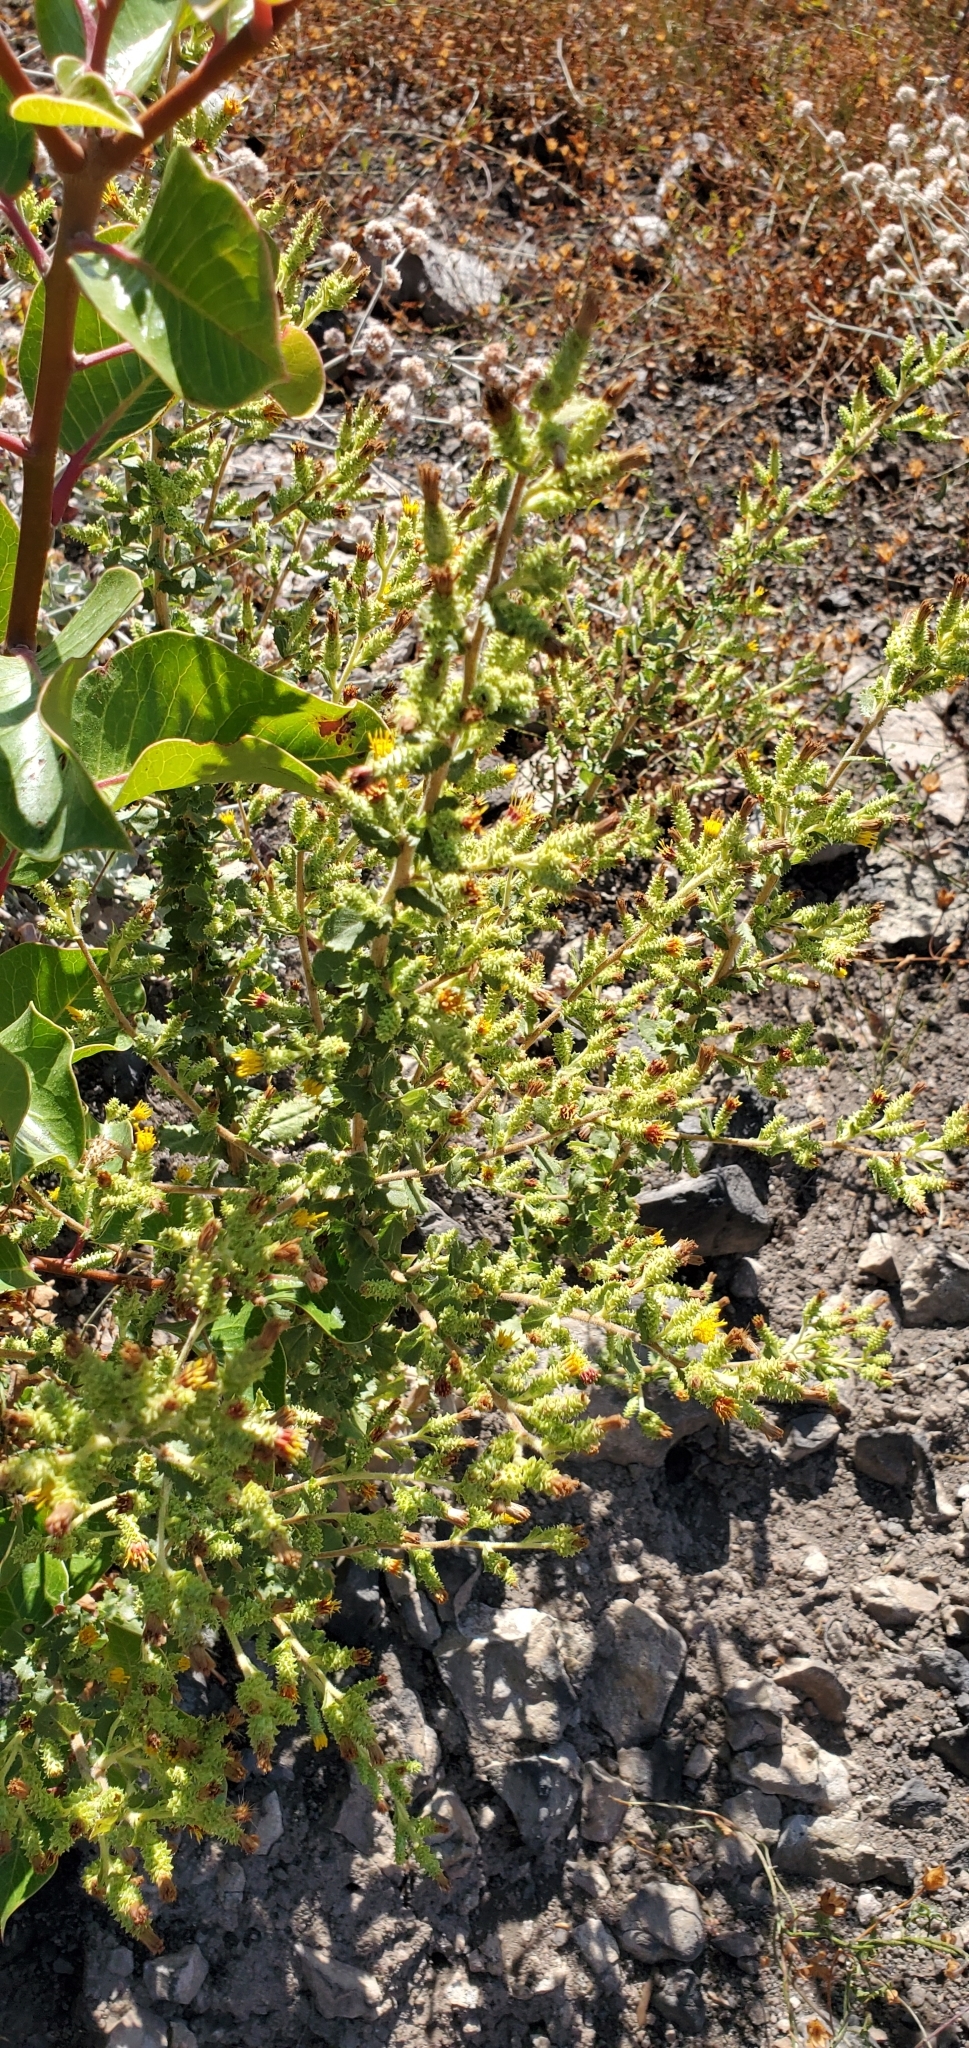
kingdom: Plantae
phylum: Tracheophyta
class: Magnoliopsida
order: Asterales
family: Asteraceae
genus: Hazardia
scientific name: Hazardia squarrosa
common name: Saw-tooth goldenbush
